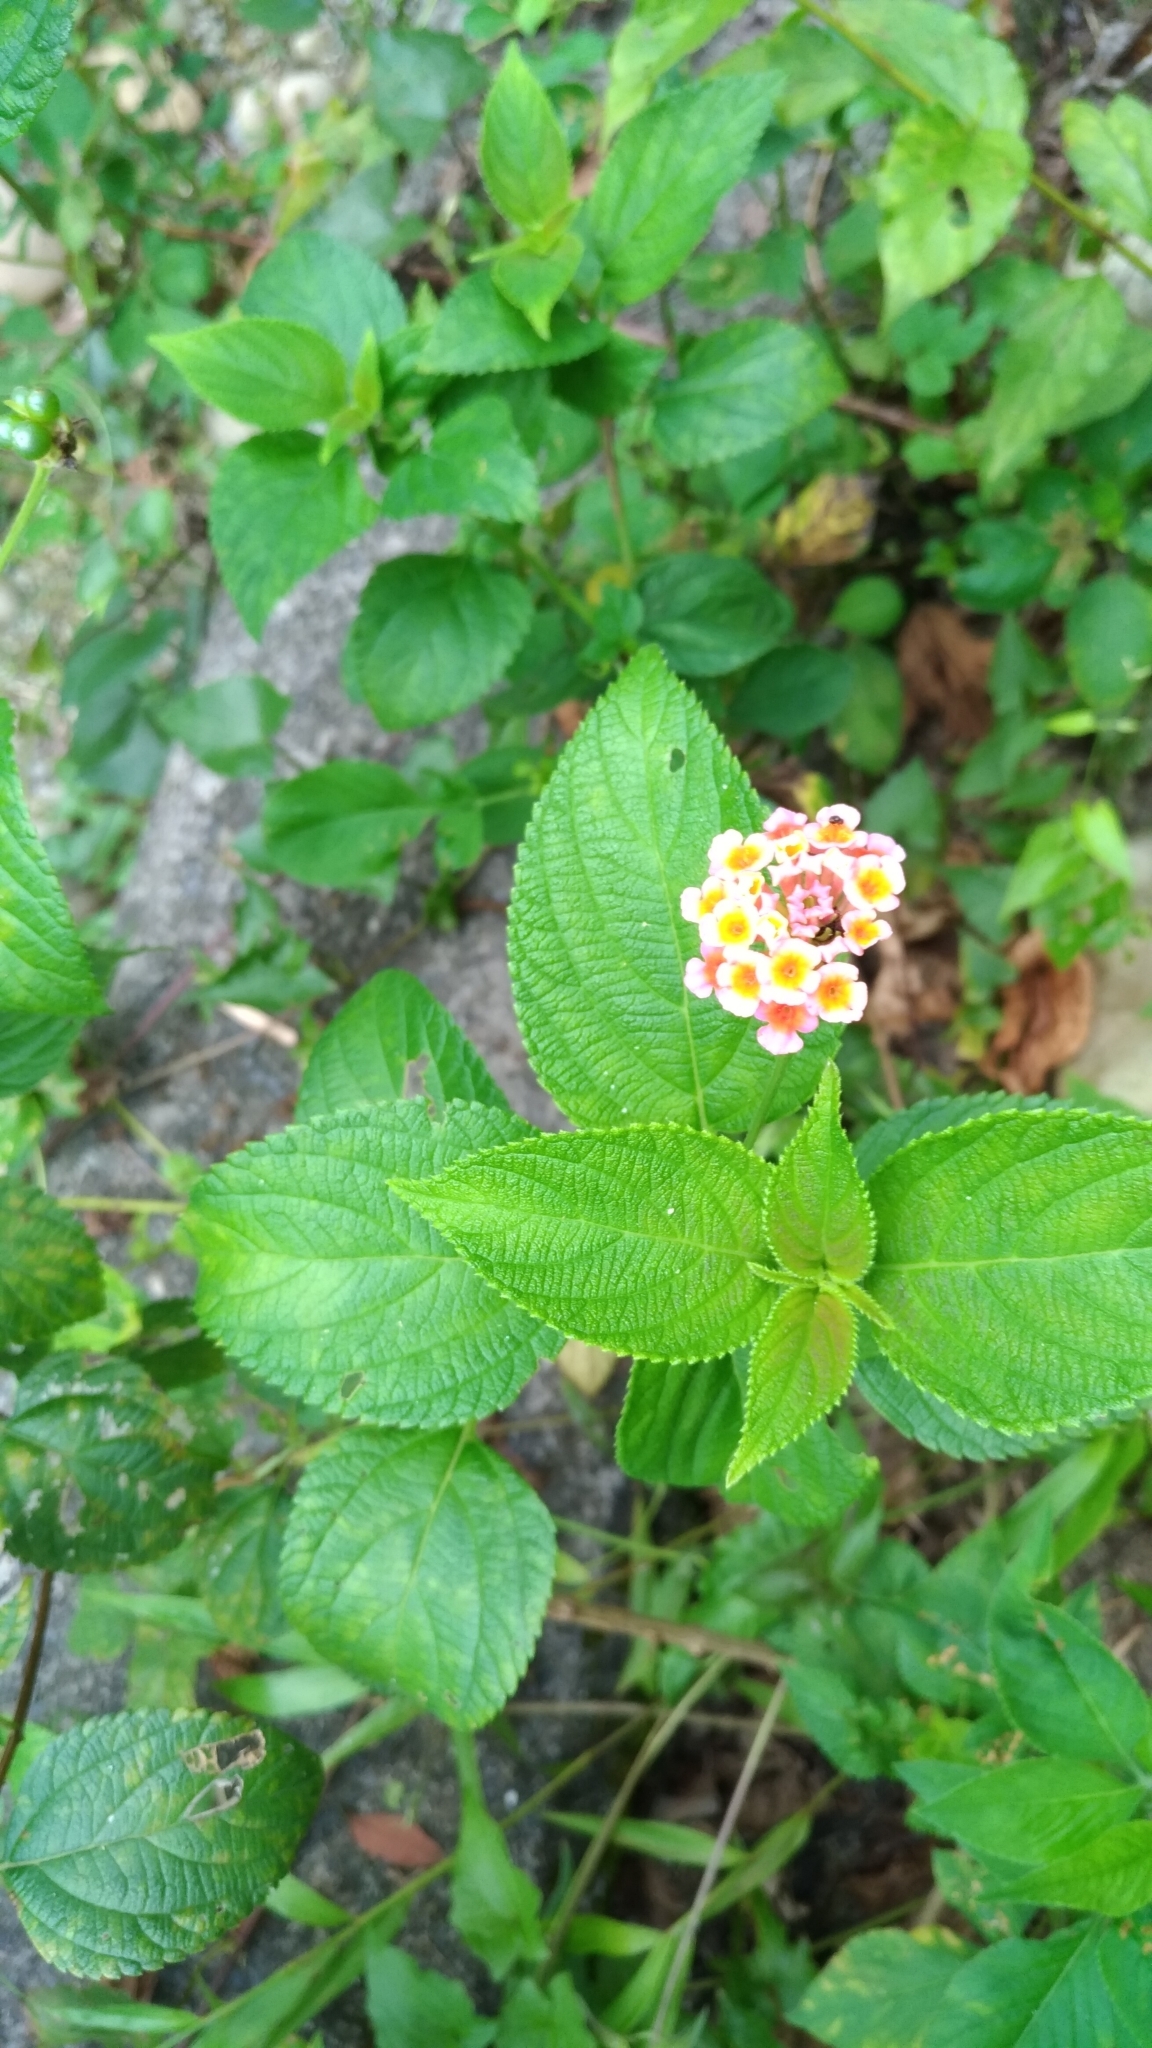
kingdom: Plantae
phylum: Tracheophyta
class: Magnoliopsida
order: Lamiales
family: Verbenaceae
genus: Lantana
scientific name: Lantana camara
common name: Lantana
